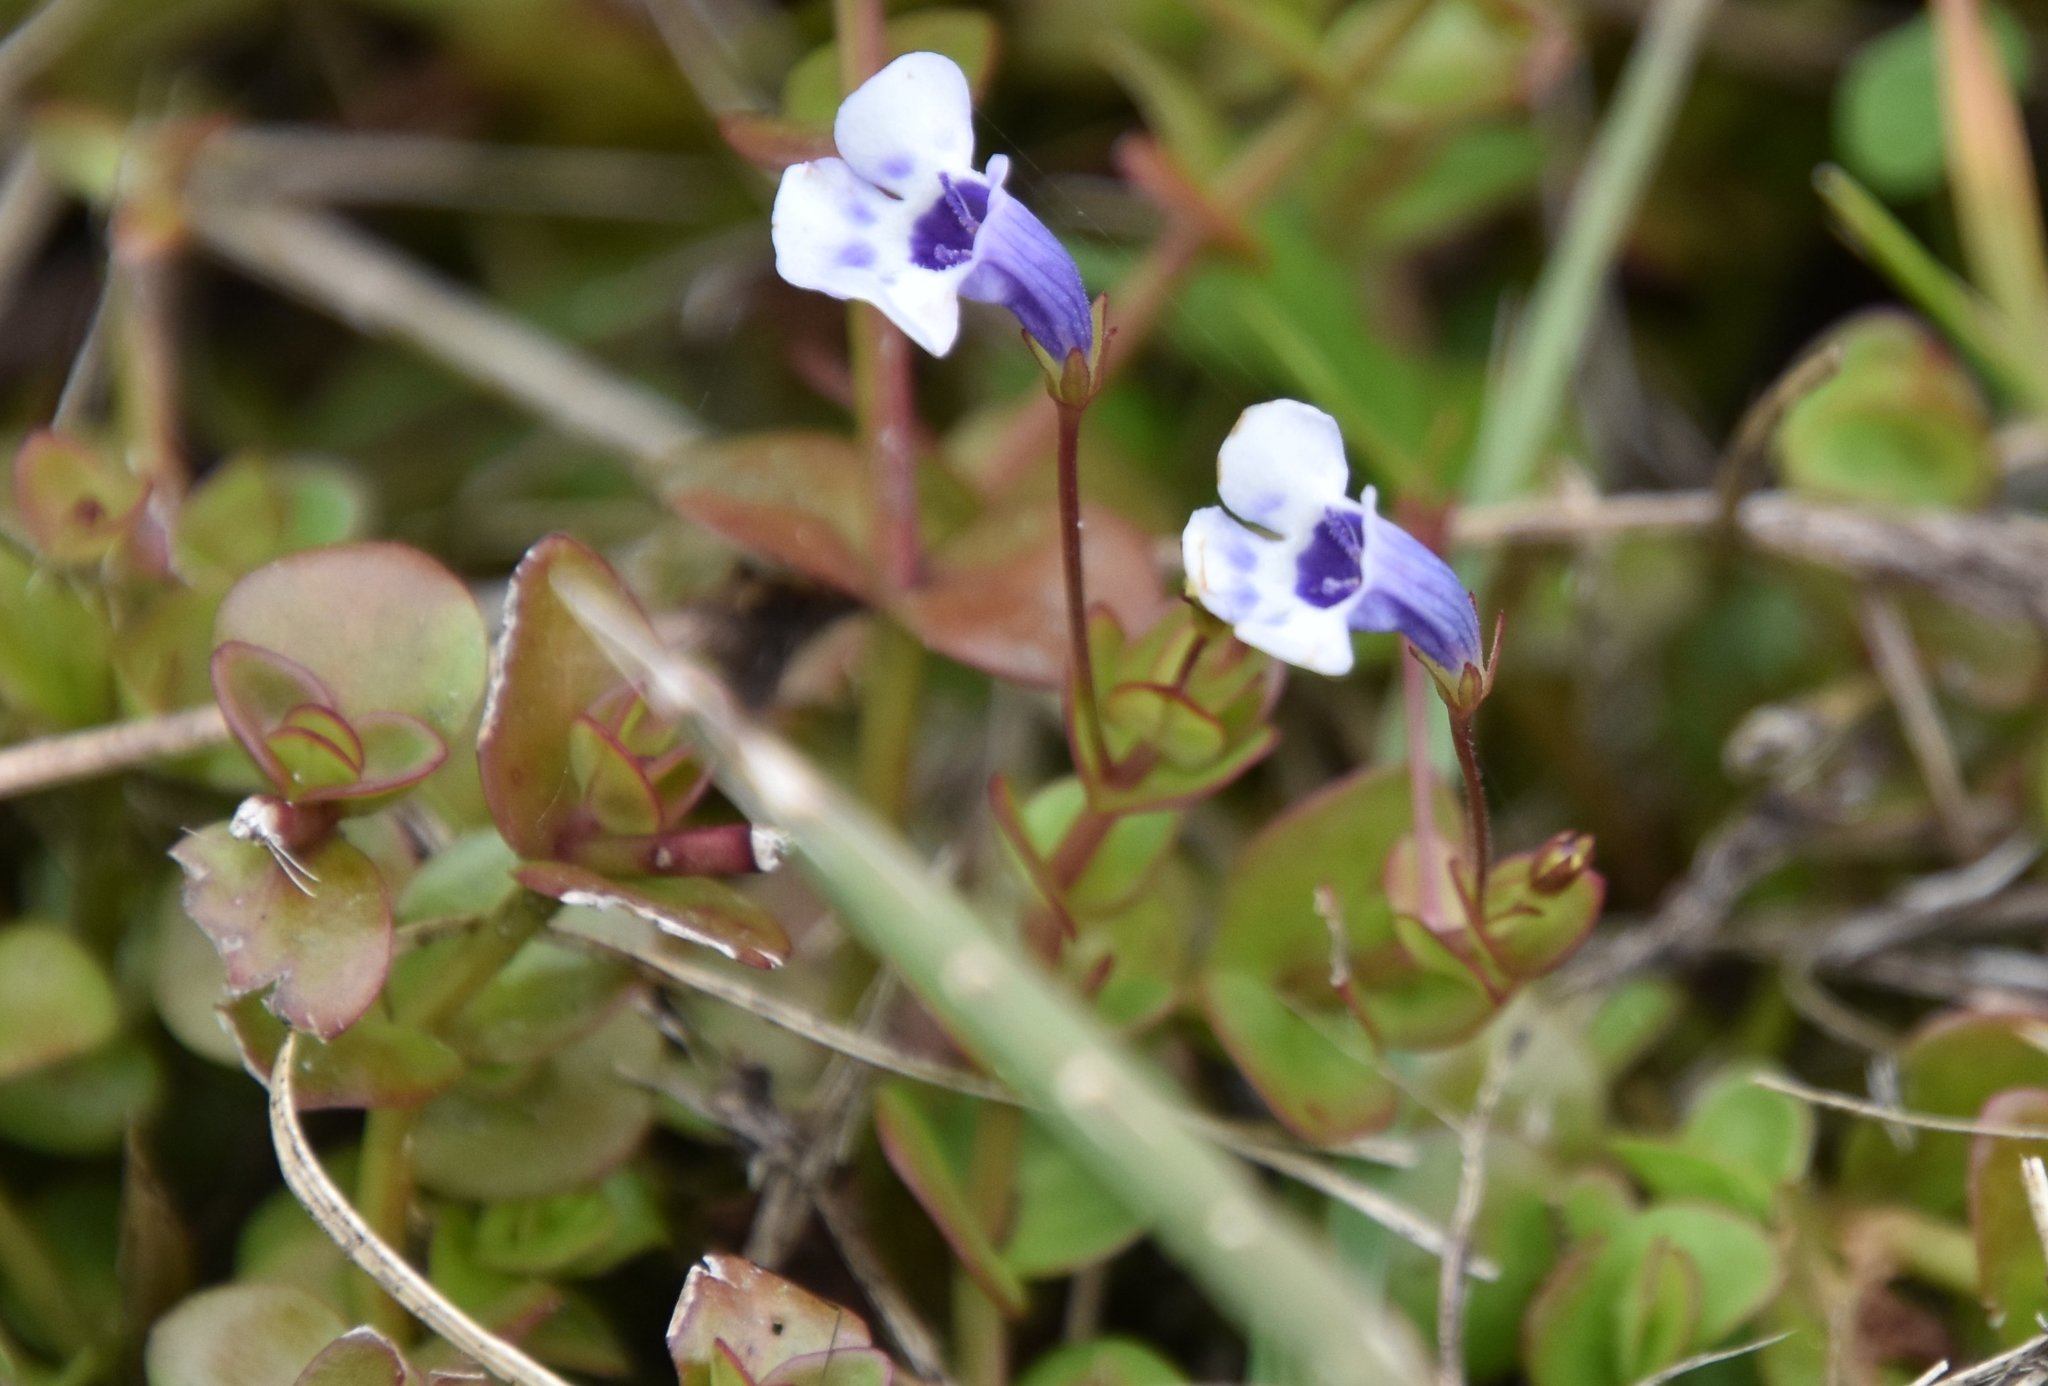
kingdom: Plantae
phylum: Tracheophyta
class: Magnoliopsida
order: Lamiales
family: Linderniaceae
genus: Lindernia
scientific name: Lindernia grandiflora
